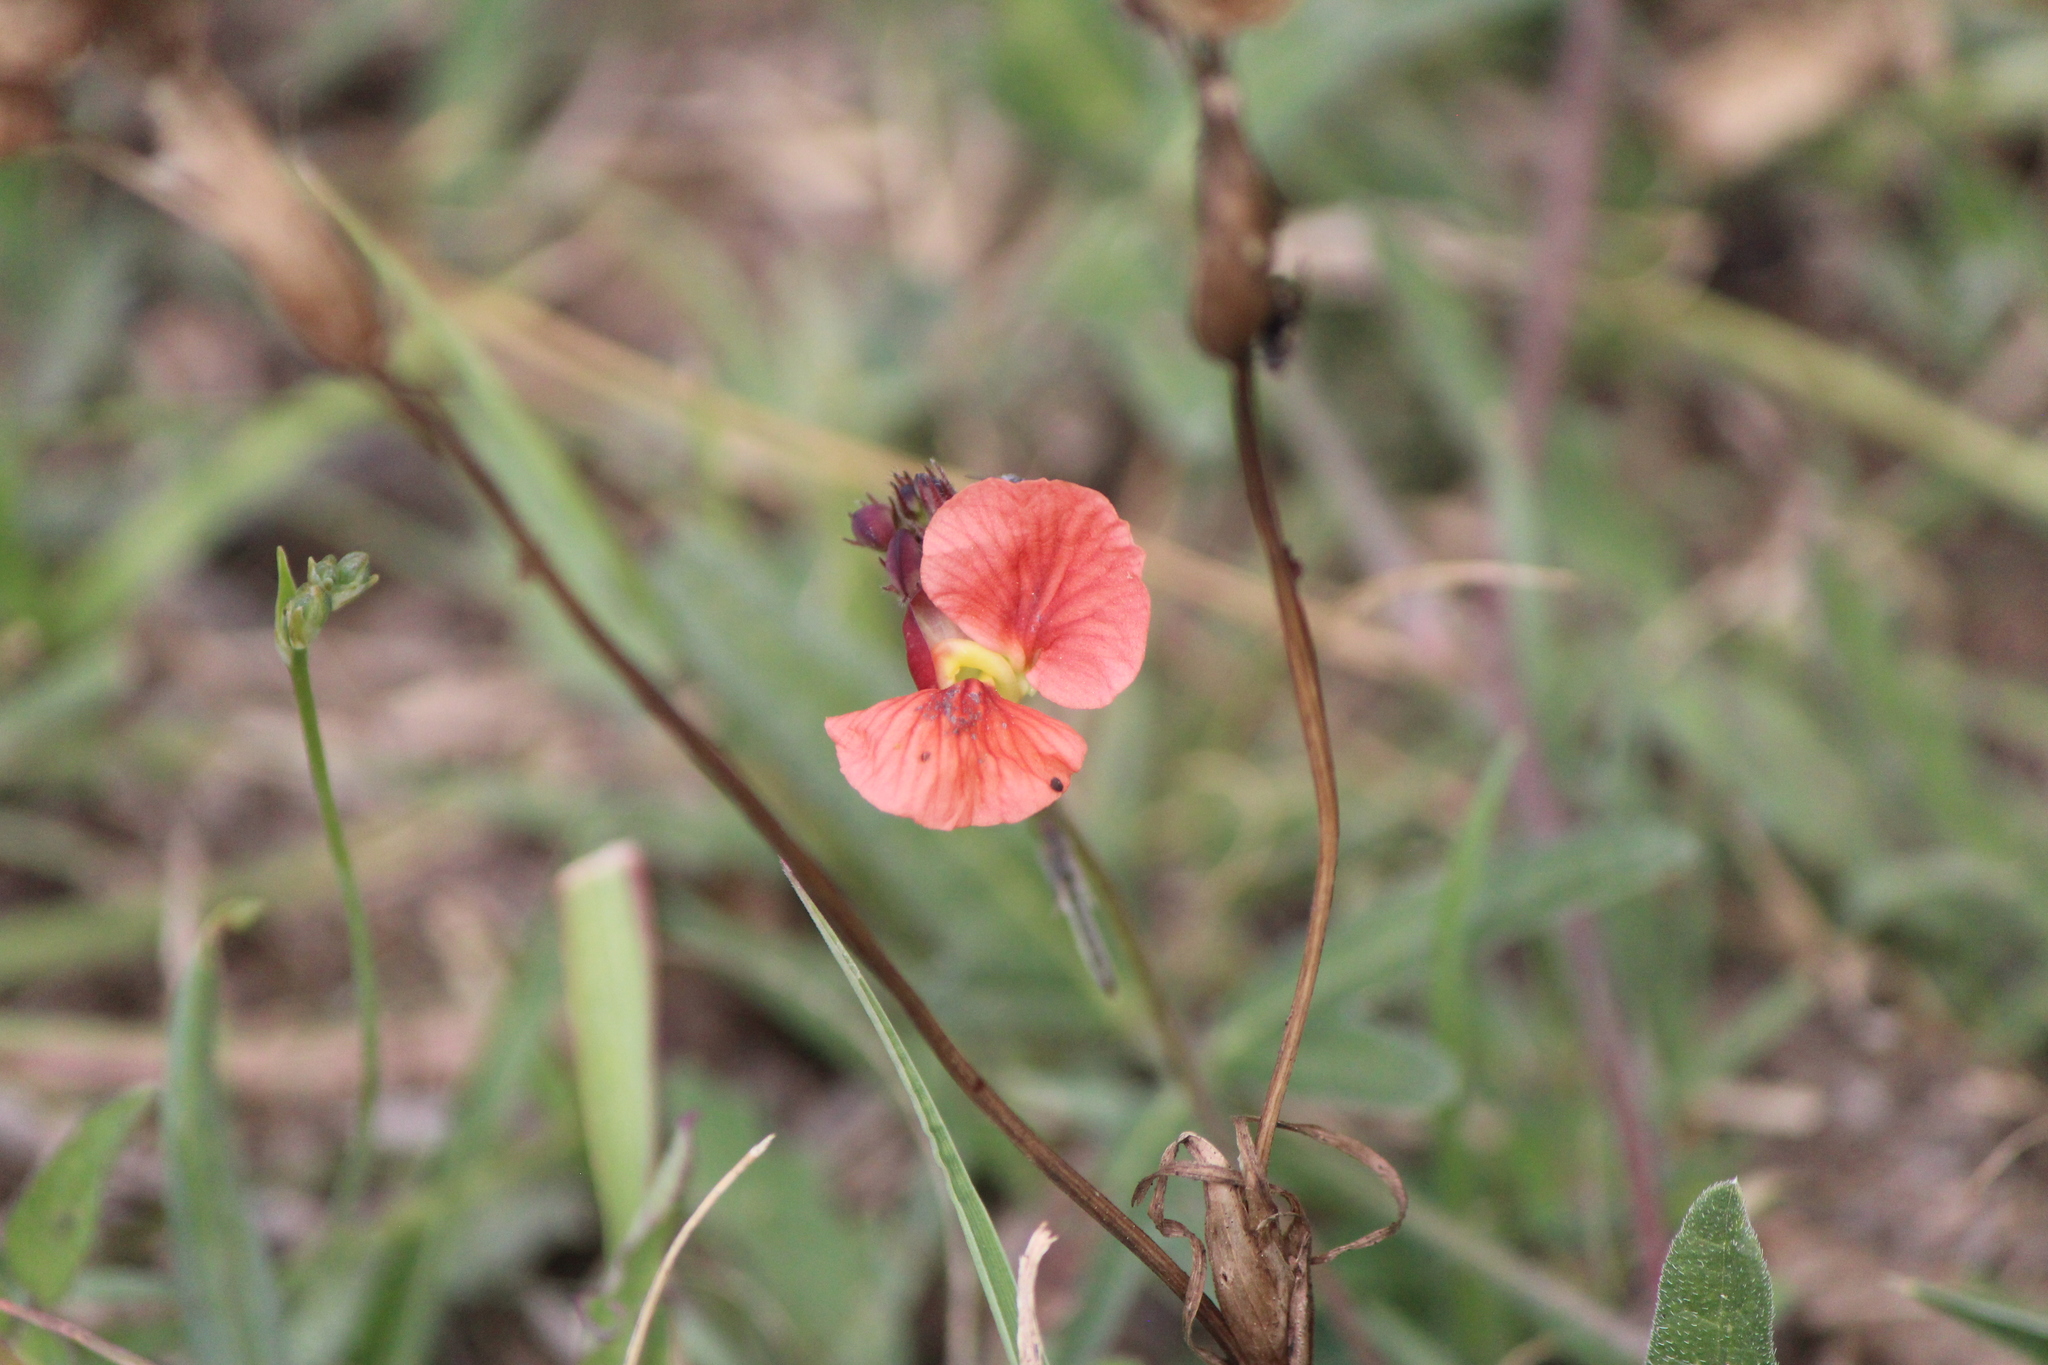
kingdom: Plantae
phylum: Tracheophyta
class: Magnoliopsida
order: Fabales
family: Fabaceae
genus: Macroptilium
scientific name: Macroptilium gibbosifolium
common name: Variableleaf bushbean
